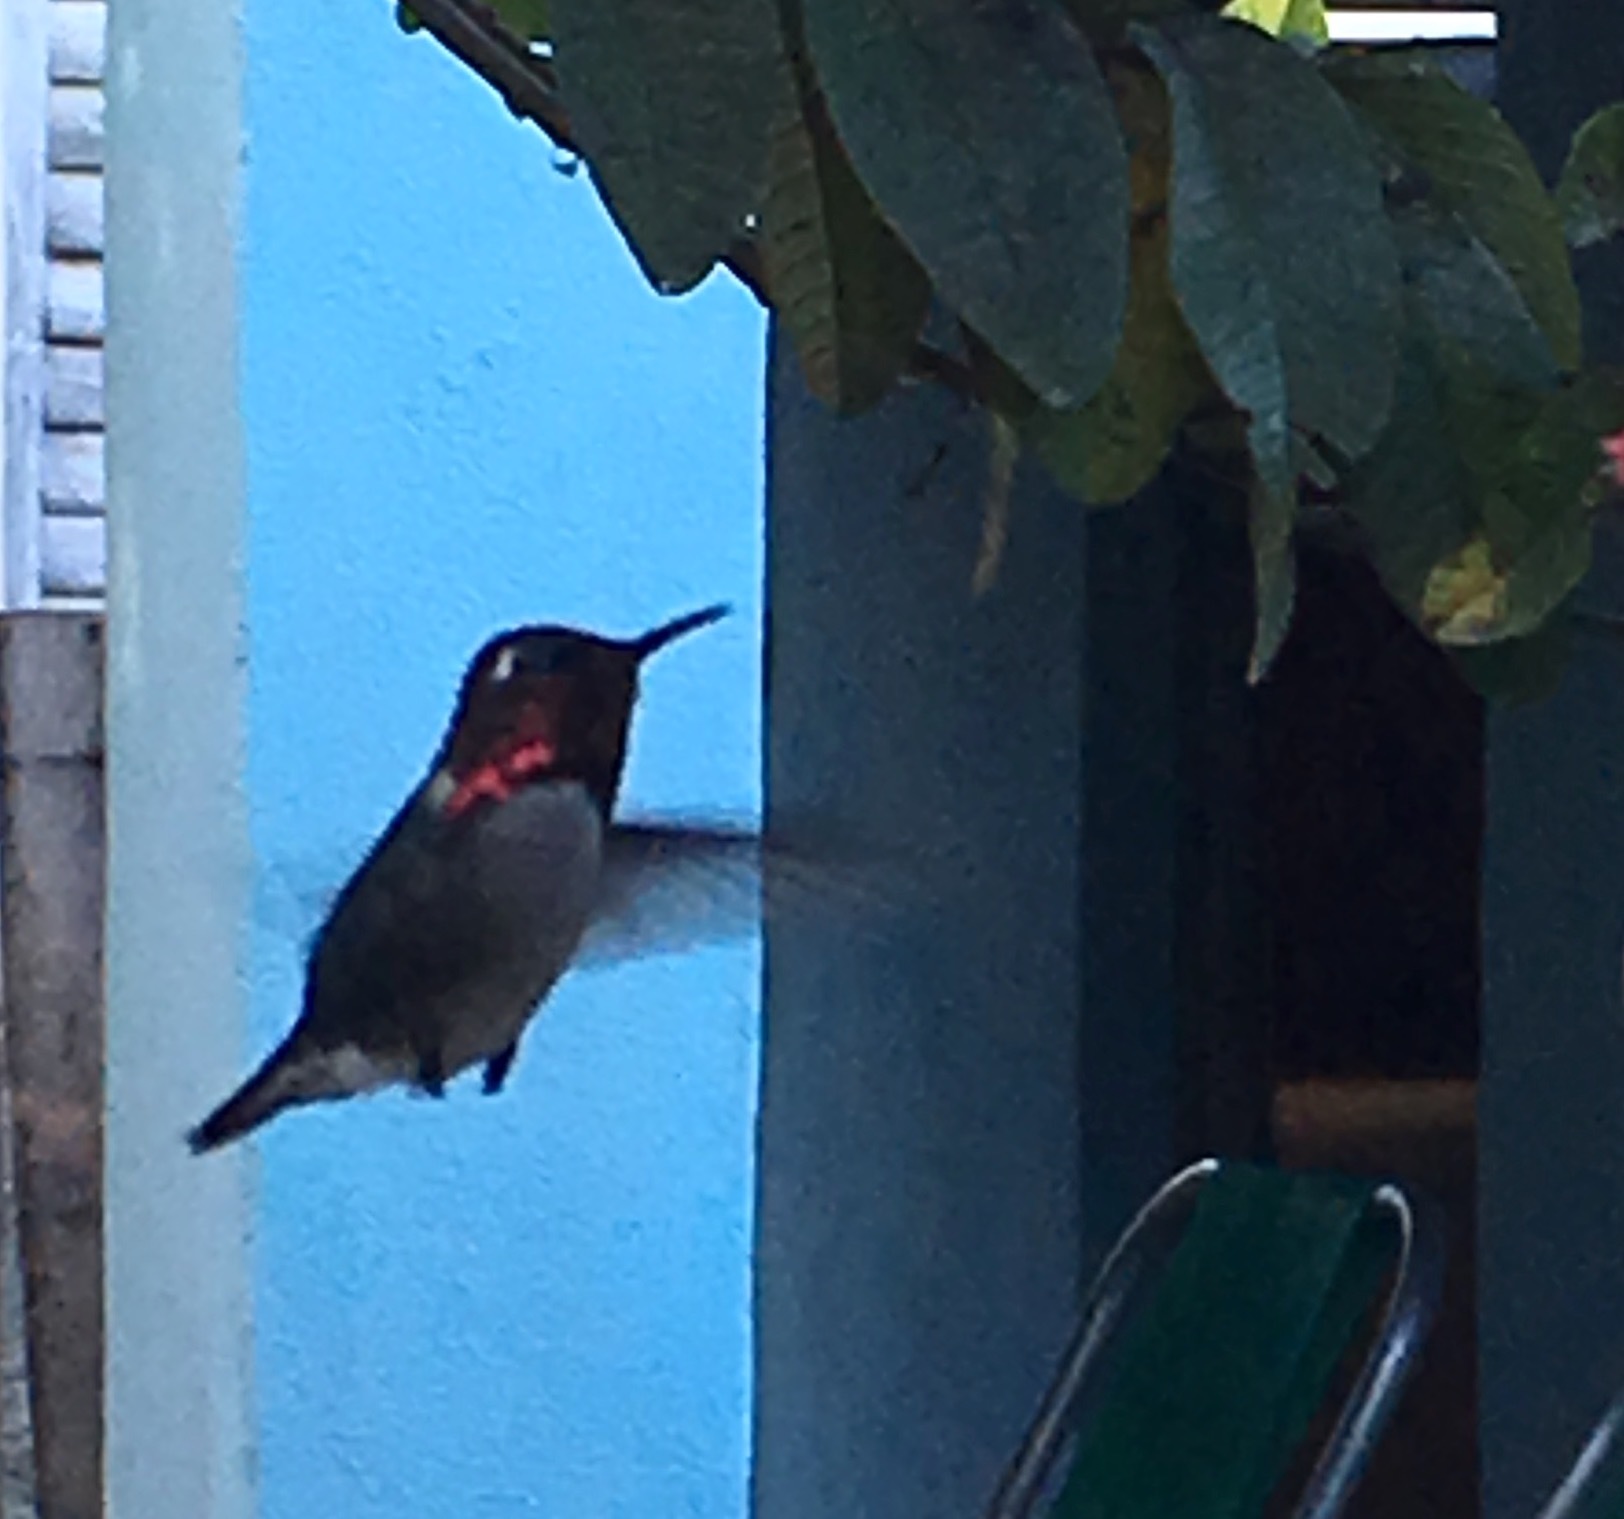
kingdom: Animalia
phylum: Chordata
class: Aves
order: Apodiformes
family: Trochilidae
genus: Mellisuga
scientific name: Mellisuga helenae
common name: Bee hummingbird
